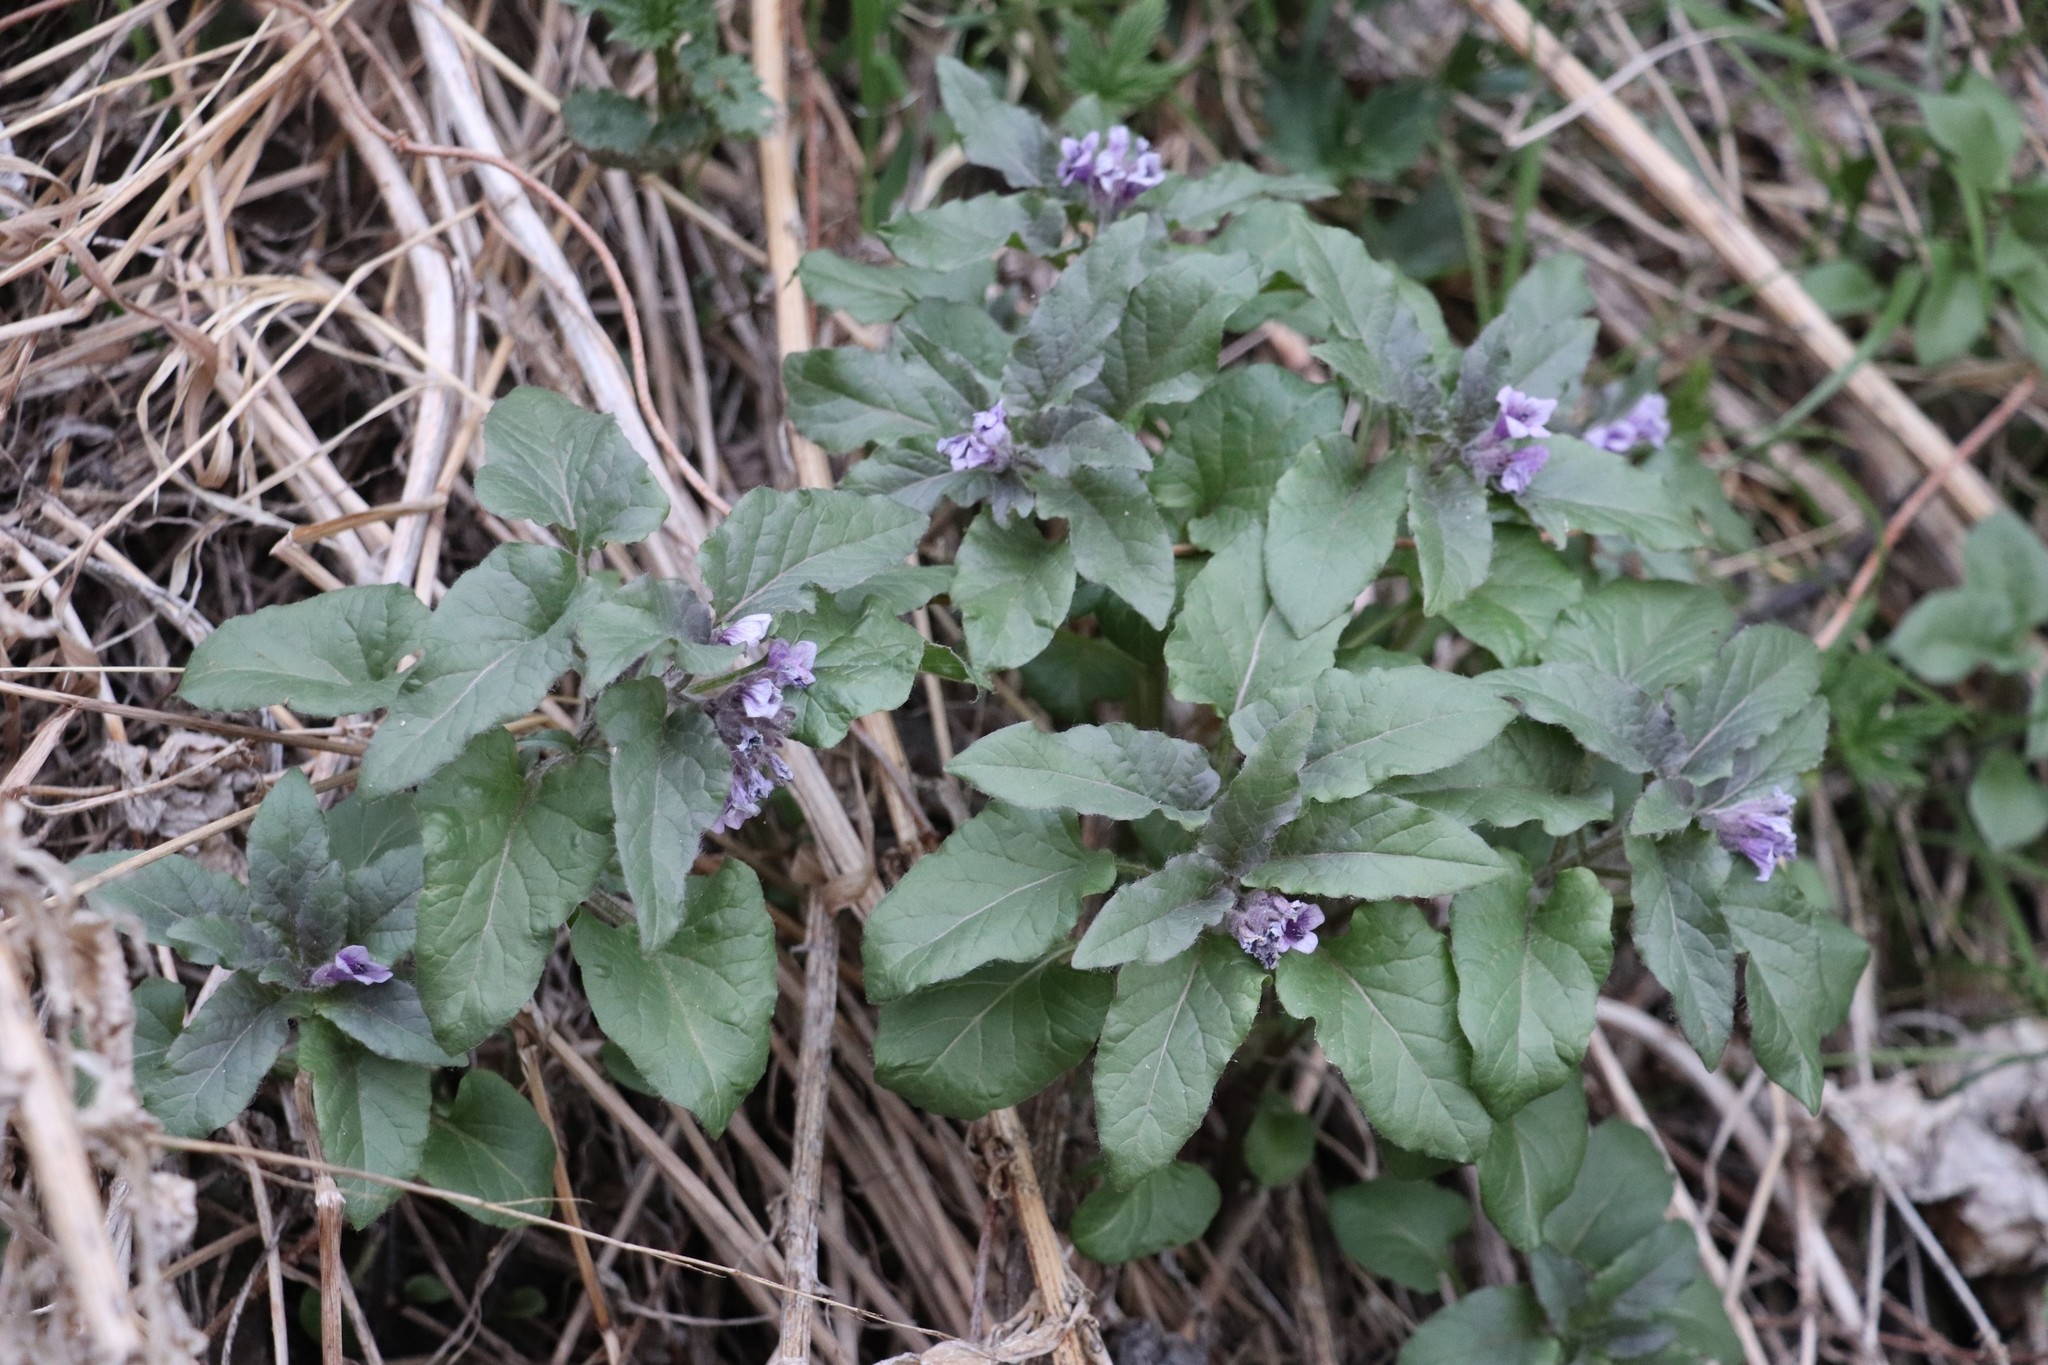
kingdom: Plantae
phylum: Tracheophyta
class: Magnoliopsida
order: Solanales
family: Solanaceae
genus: Physochlaina
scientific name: Physochlaina physaloides
